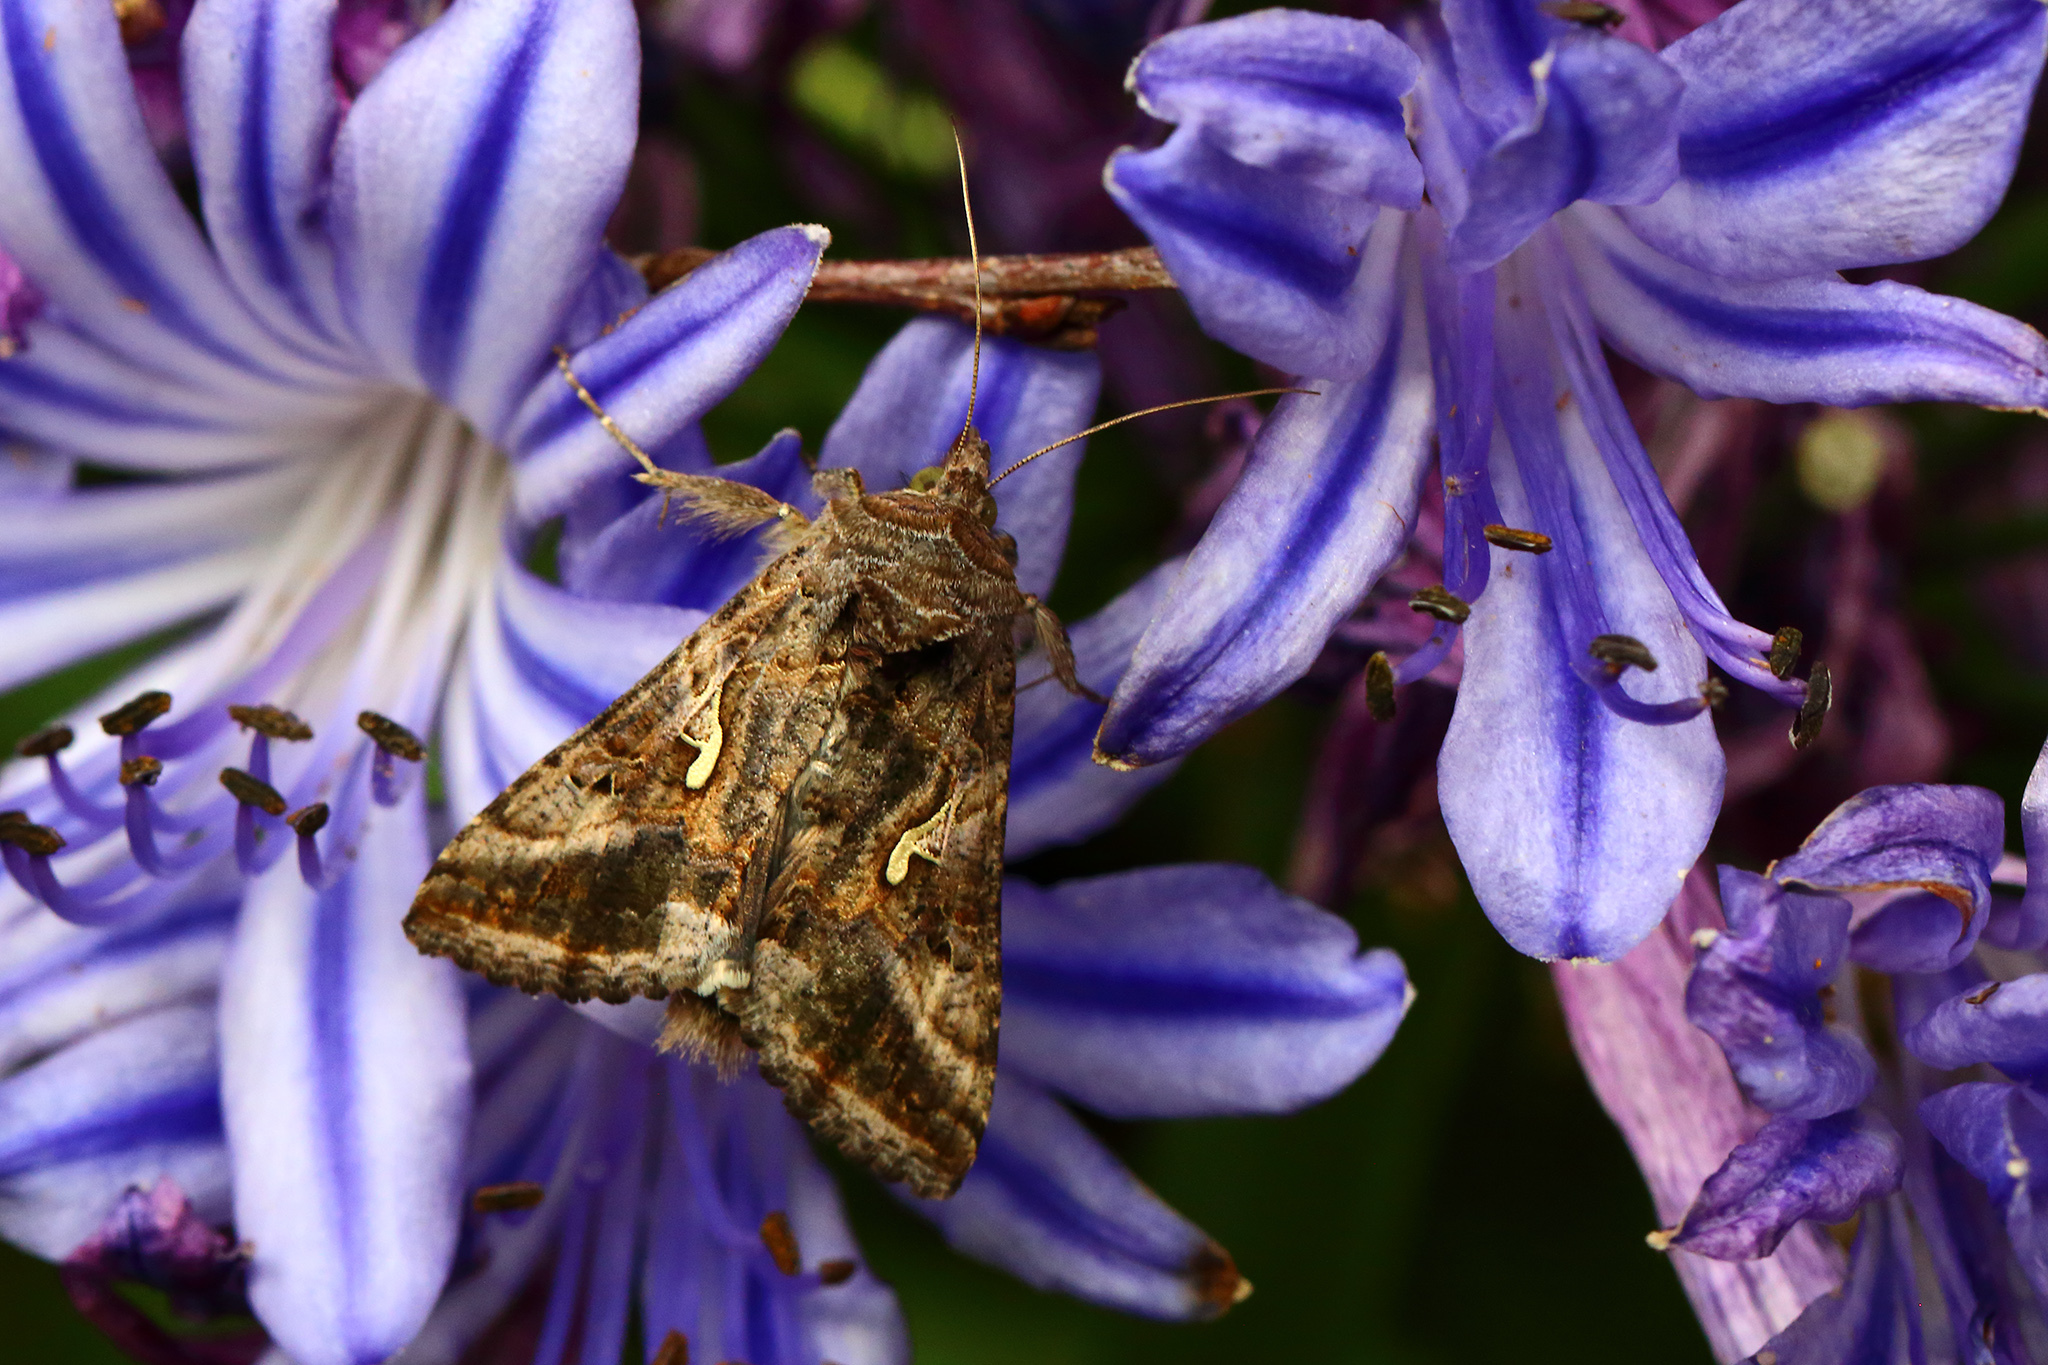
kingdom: Animalia
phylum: Arthropoda
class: Insecta
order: Lepidoptera
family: Noctuidae
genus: Autographa
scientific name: Autographa gamma
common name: Silver y
